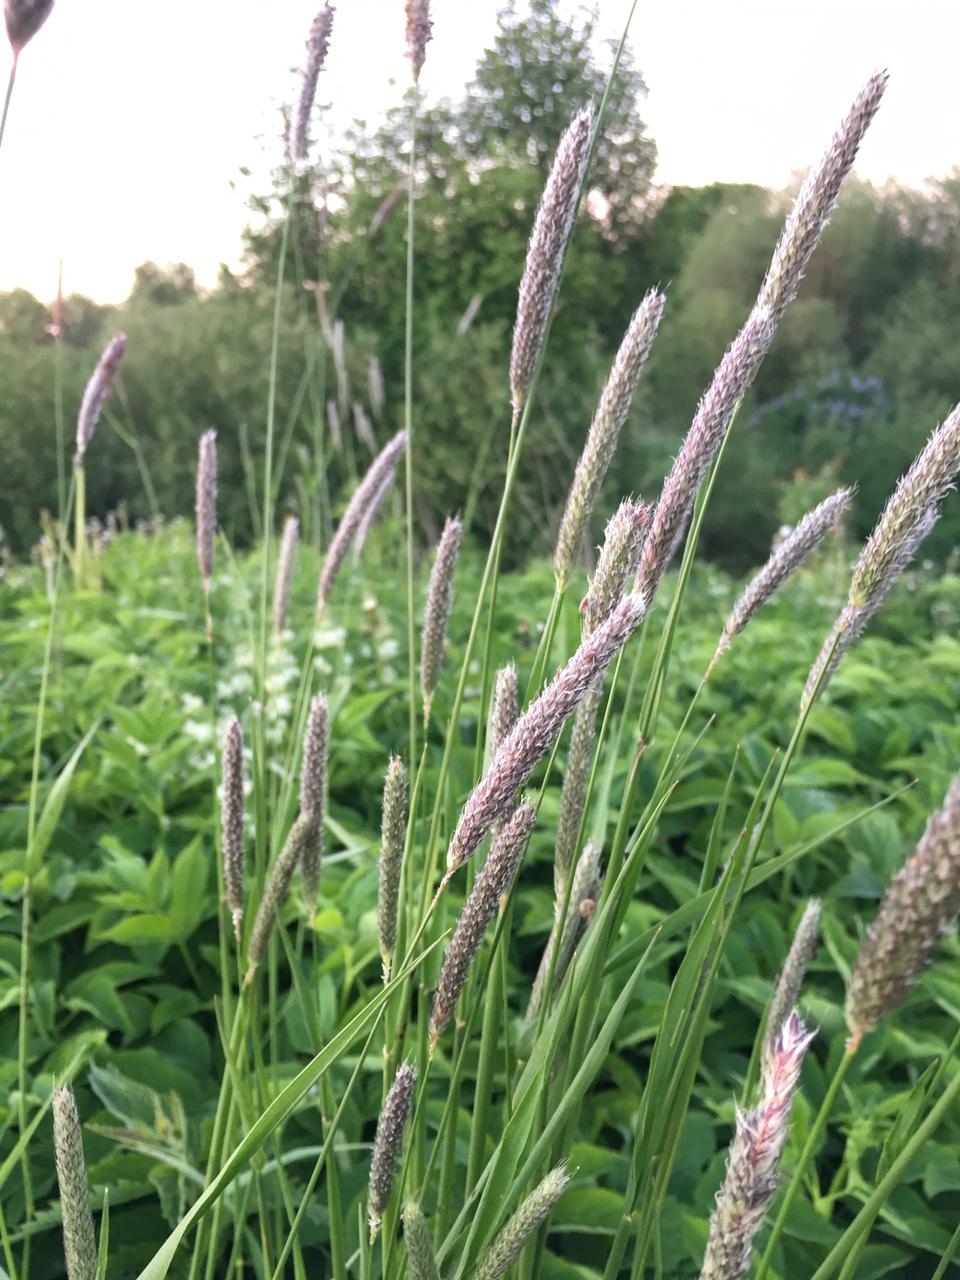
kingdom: Plantae
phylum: Tracheophyta
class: Liliopsida
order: Poales
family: Poaceae
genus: Alopecurus
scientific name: Alopecurus pratensis
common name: Meadow foxtail
